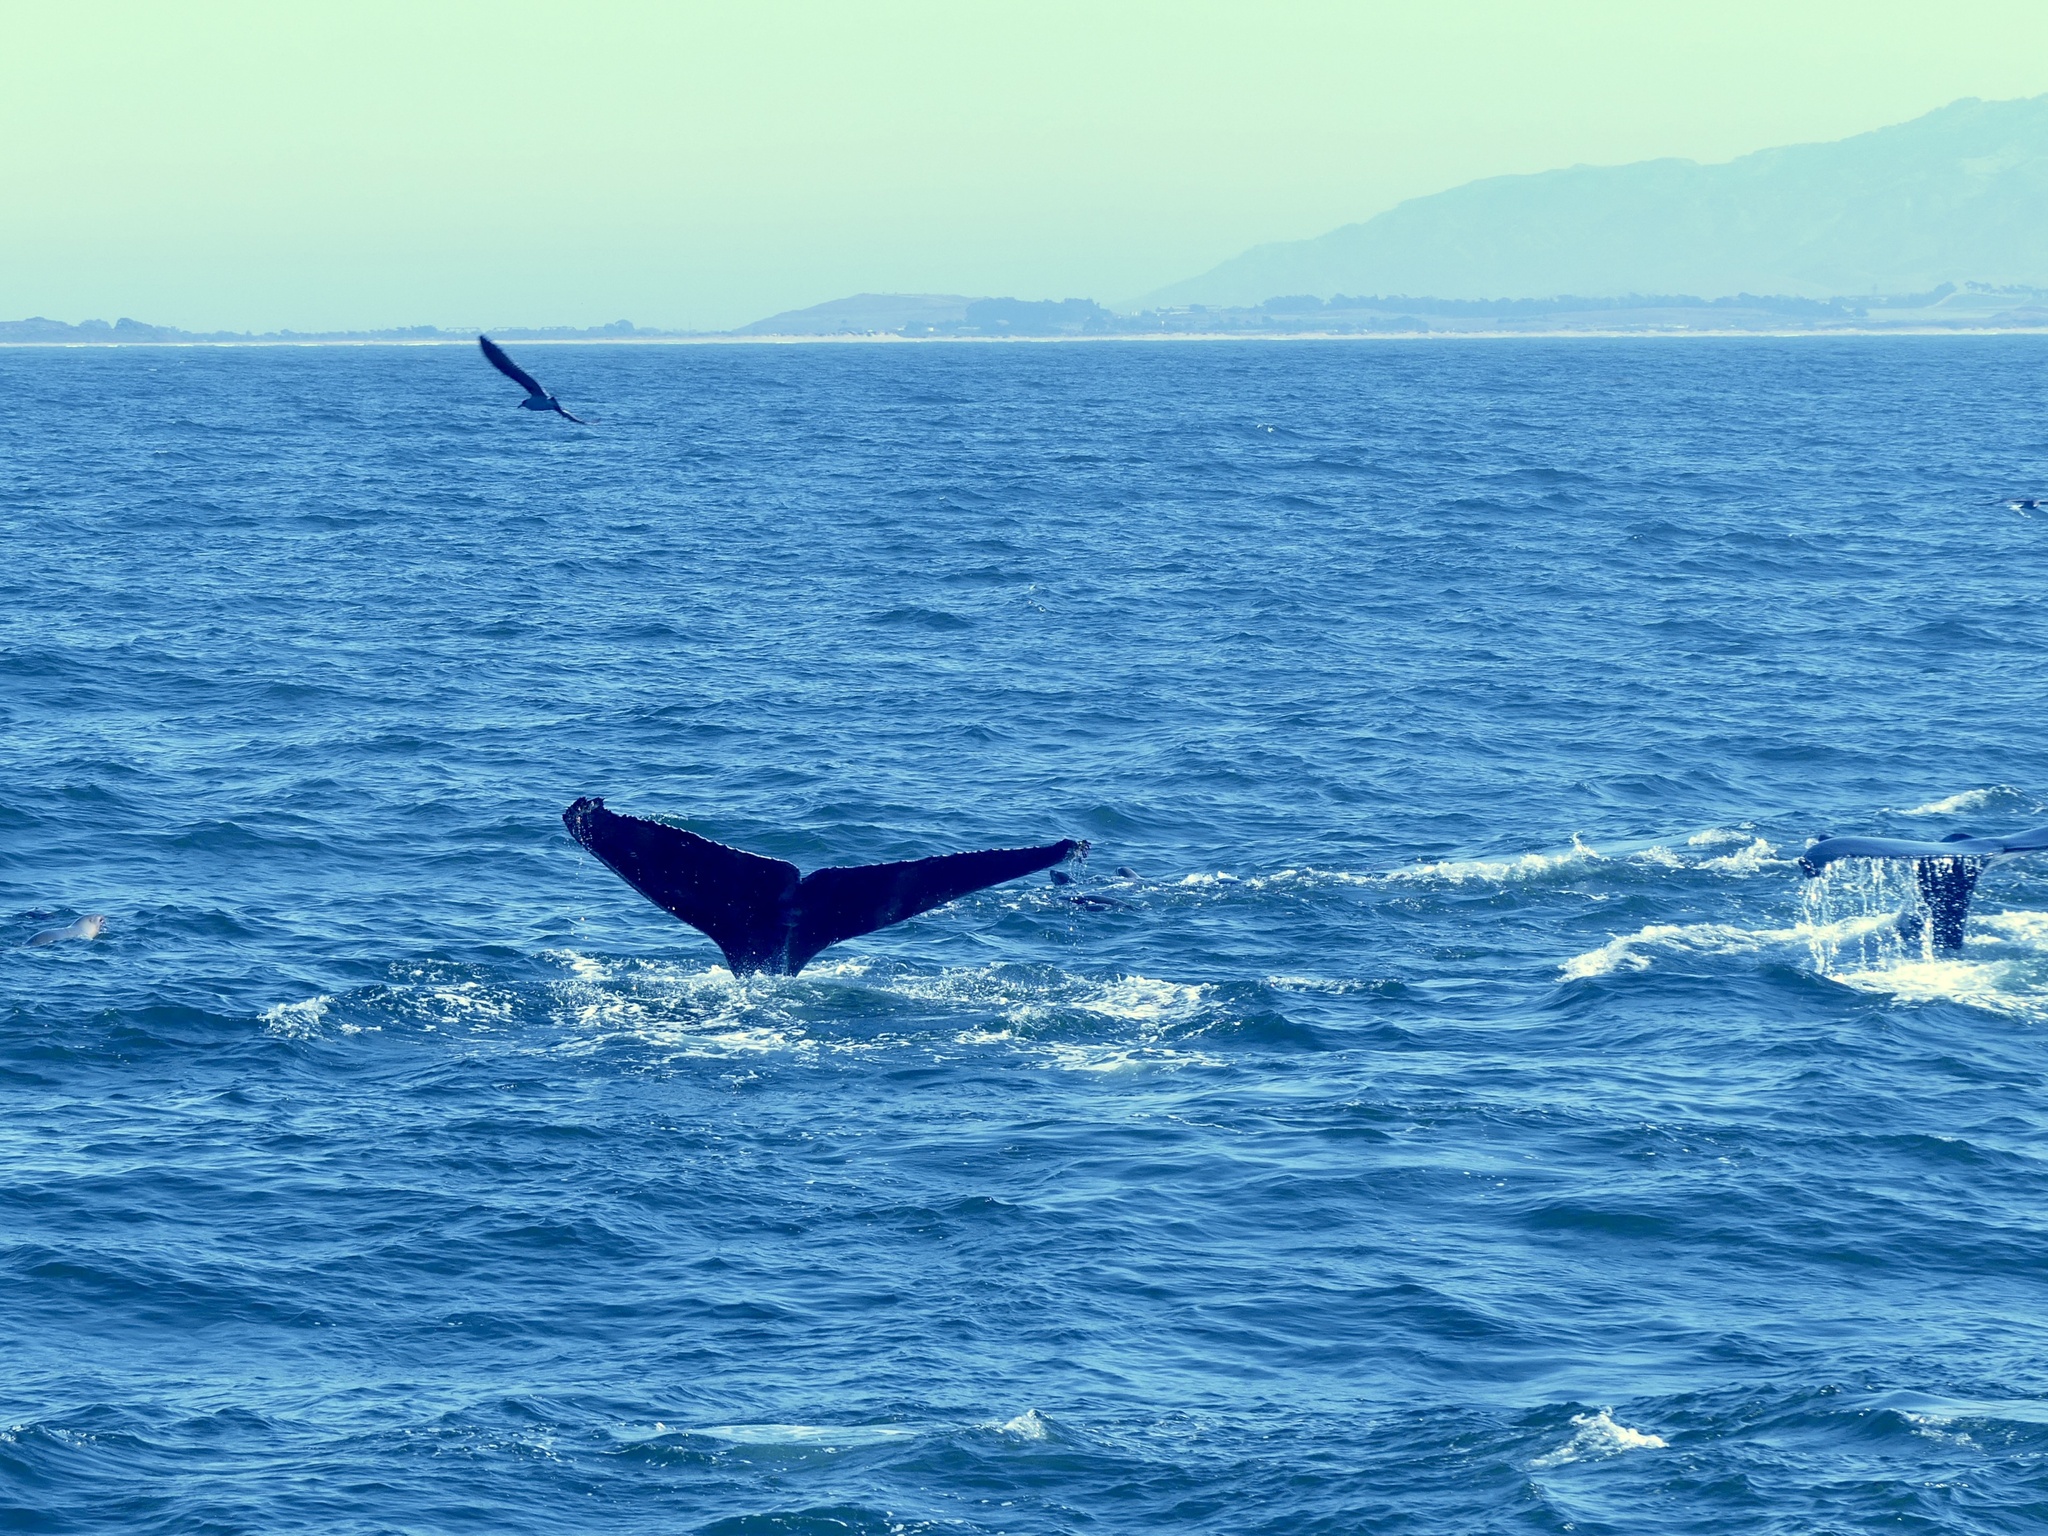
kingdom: Animalia
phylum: Chordata
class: Mammalia
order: Cetacea
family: Balaenopteridae
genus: Megaptera
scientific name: Megaptera novaeangliae
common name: Humpback whale
